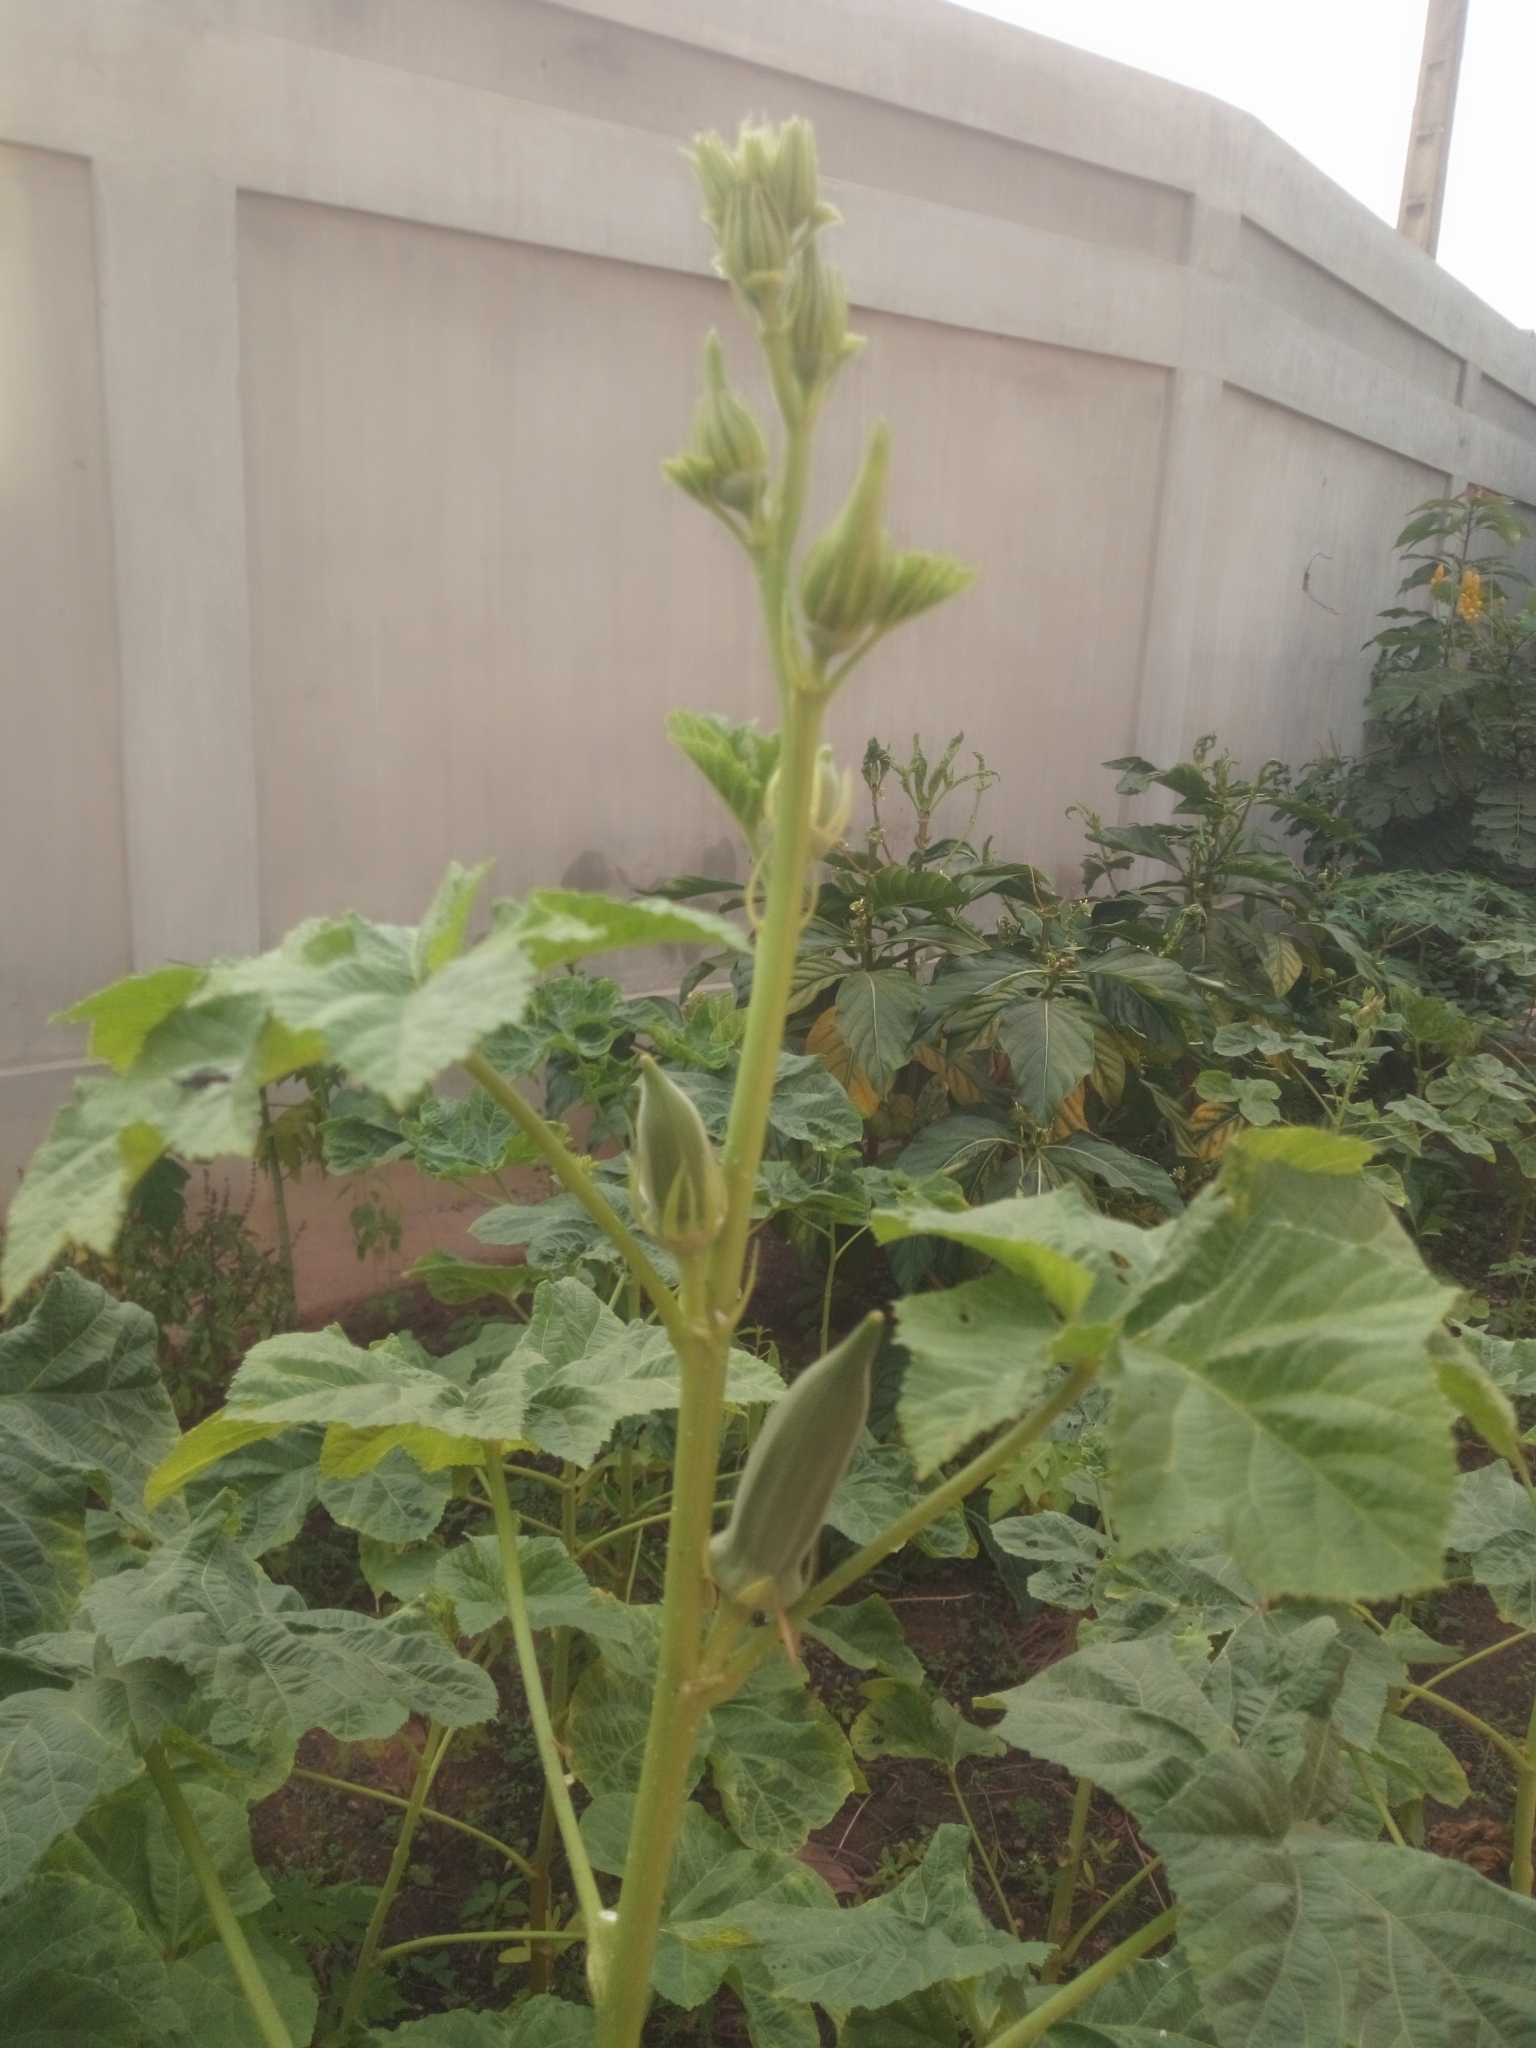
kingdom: Plantae
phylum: Tracheophyta
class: Magnoliopsida
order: Malvales
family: Malvaceae
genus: Abelmoschus
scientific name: Abelmoschus esculentus
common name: Okra
